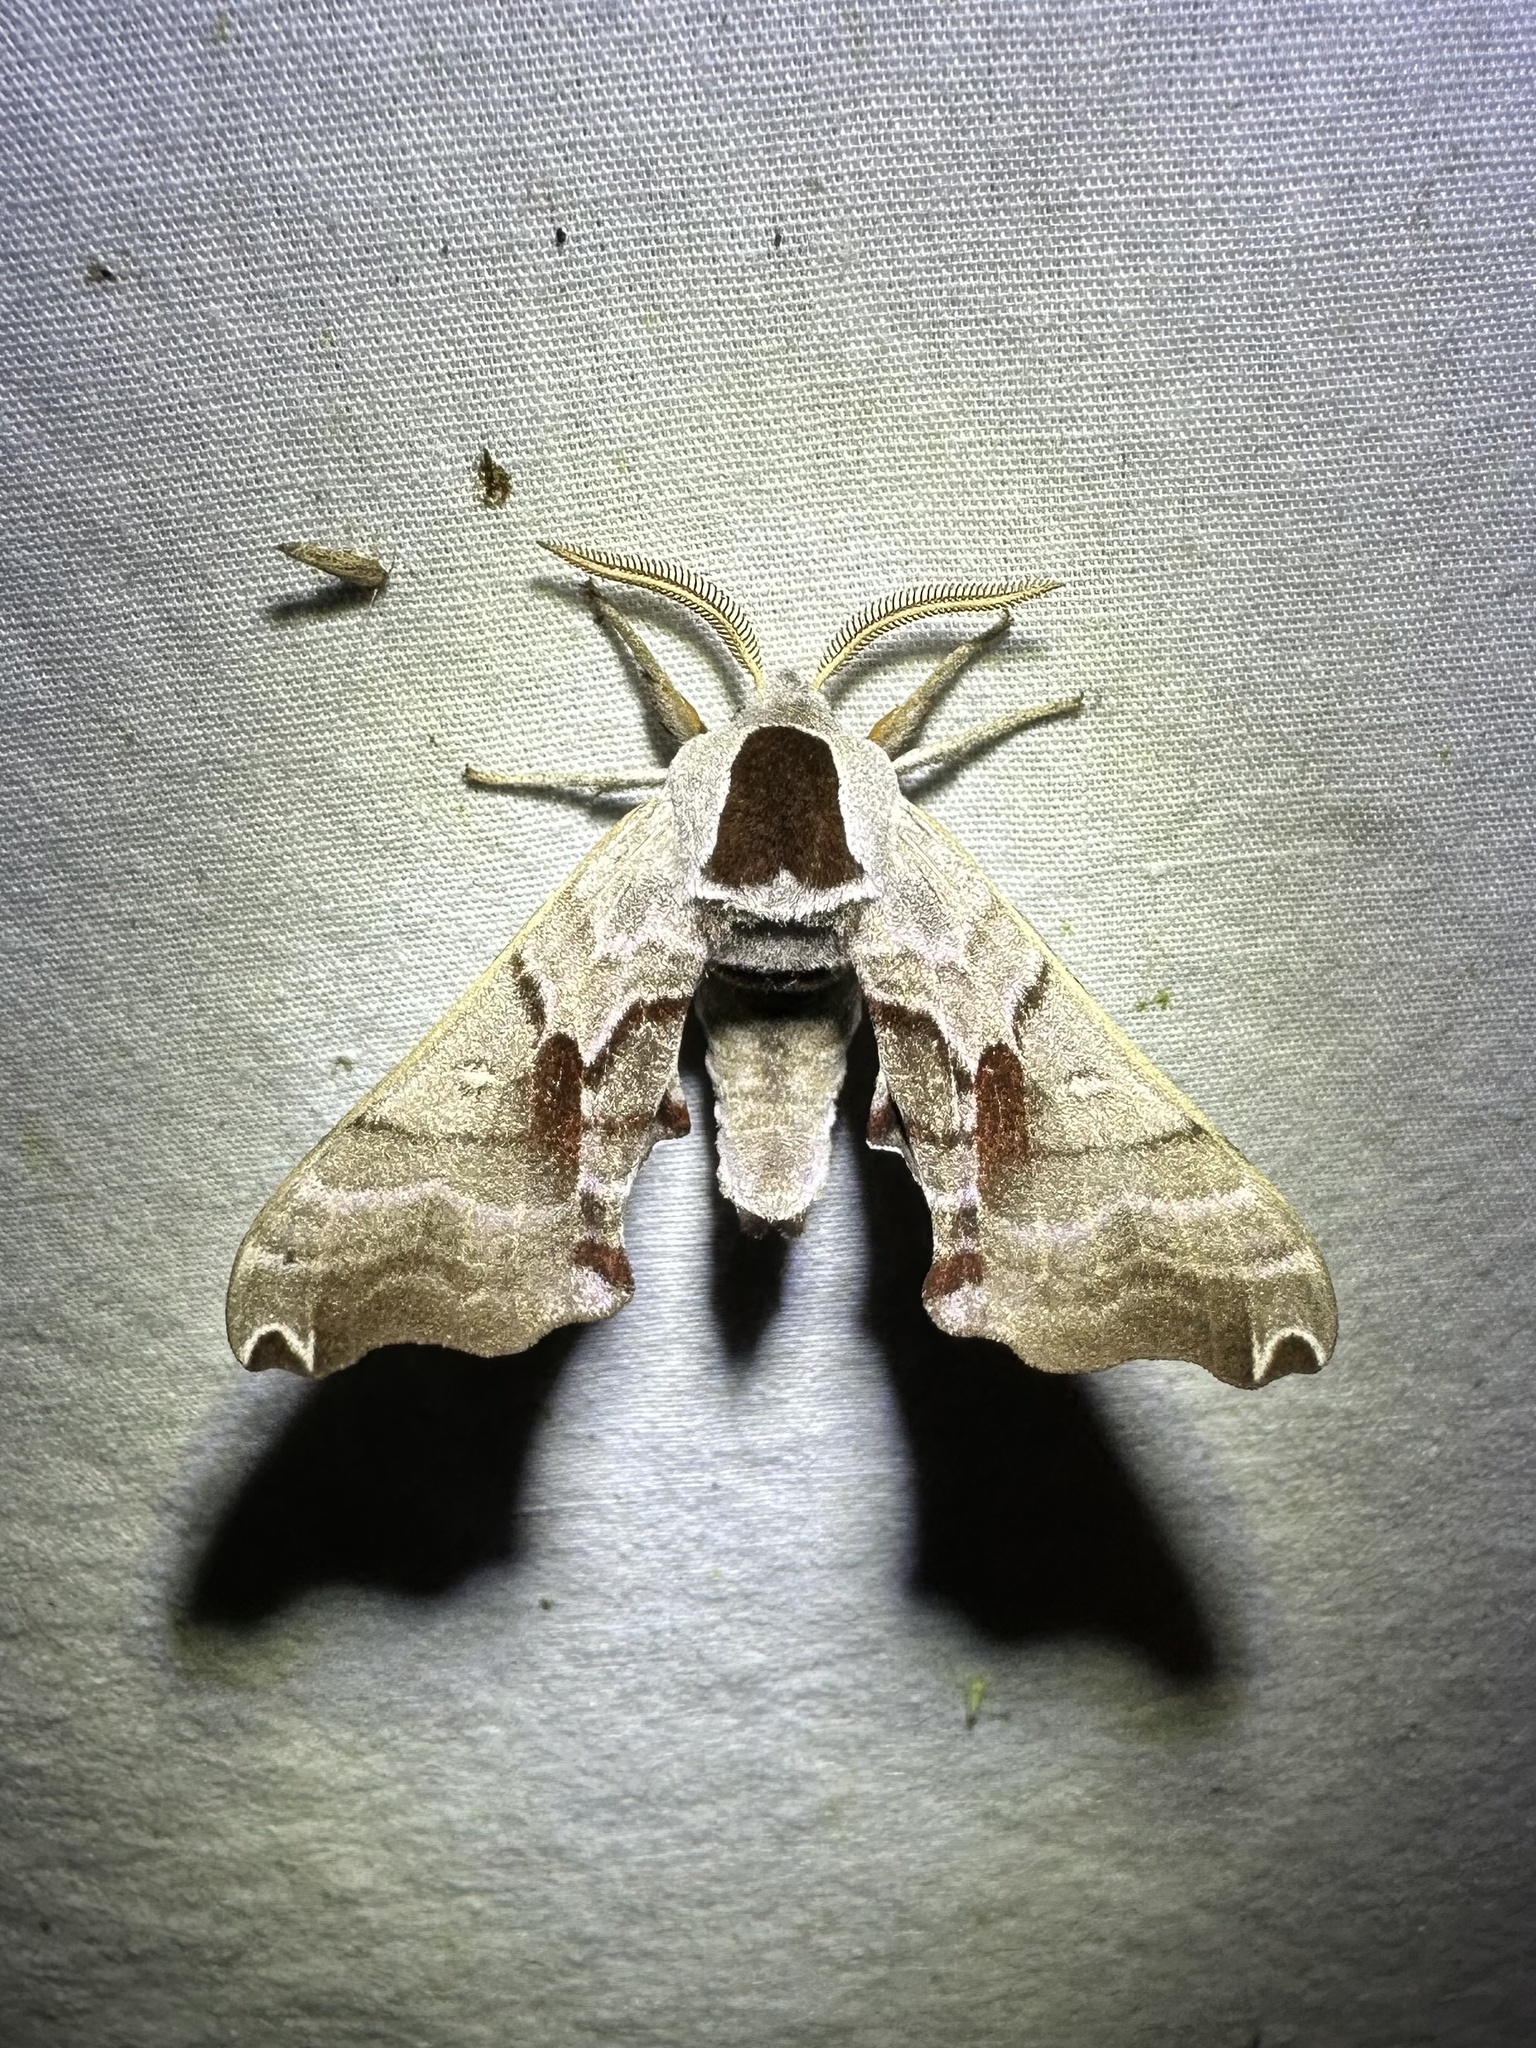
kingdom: Animalia
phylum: Arthropoda
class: Insecta
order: Lepidoptera
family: Sphingidae
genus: Smerinthus
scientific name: Smerinthus jamaicensis
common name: Twin spotted sphinx
